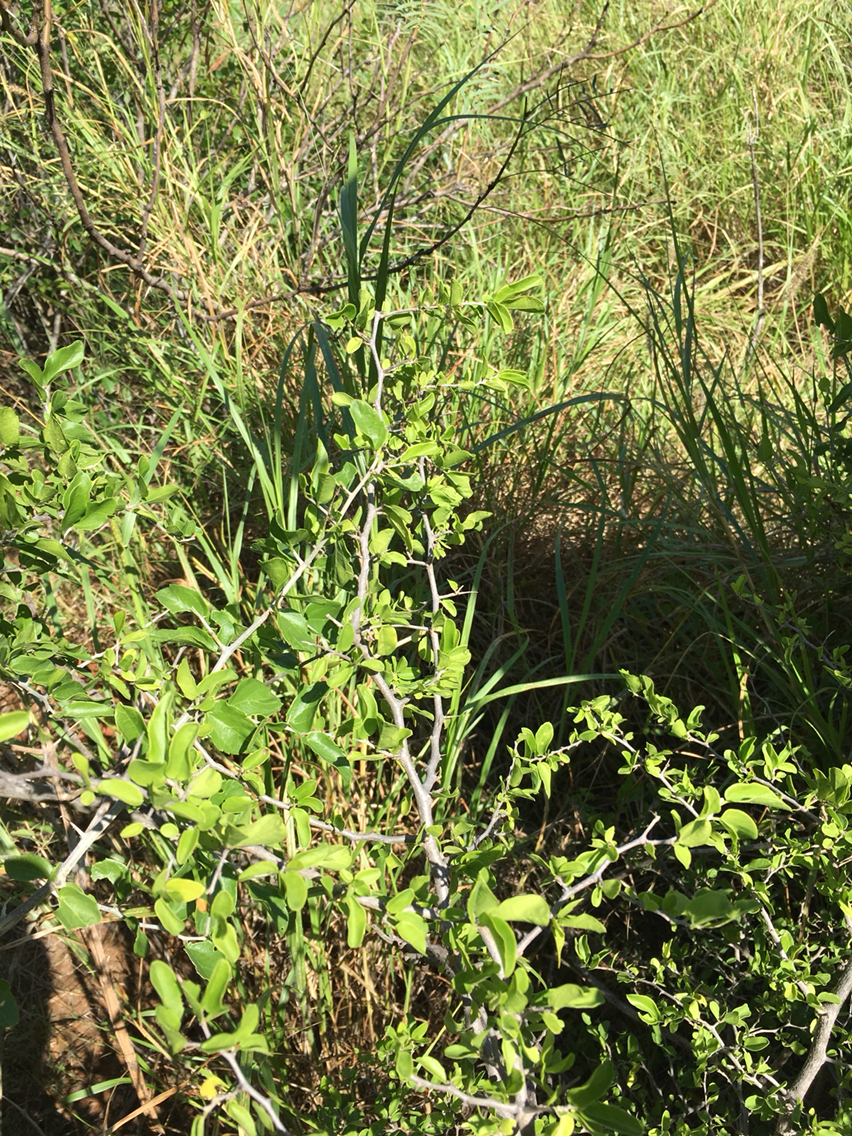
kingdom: Plantae
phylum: Tracheophyta
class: Magnoliopsida
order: Rosales
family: Cannabaceae
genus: Celtis
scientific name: Celtis pallida
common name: Desert hackberry
